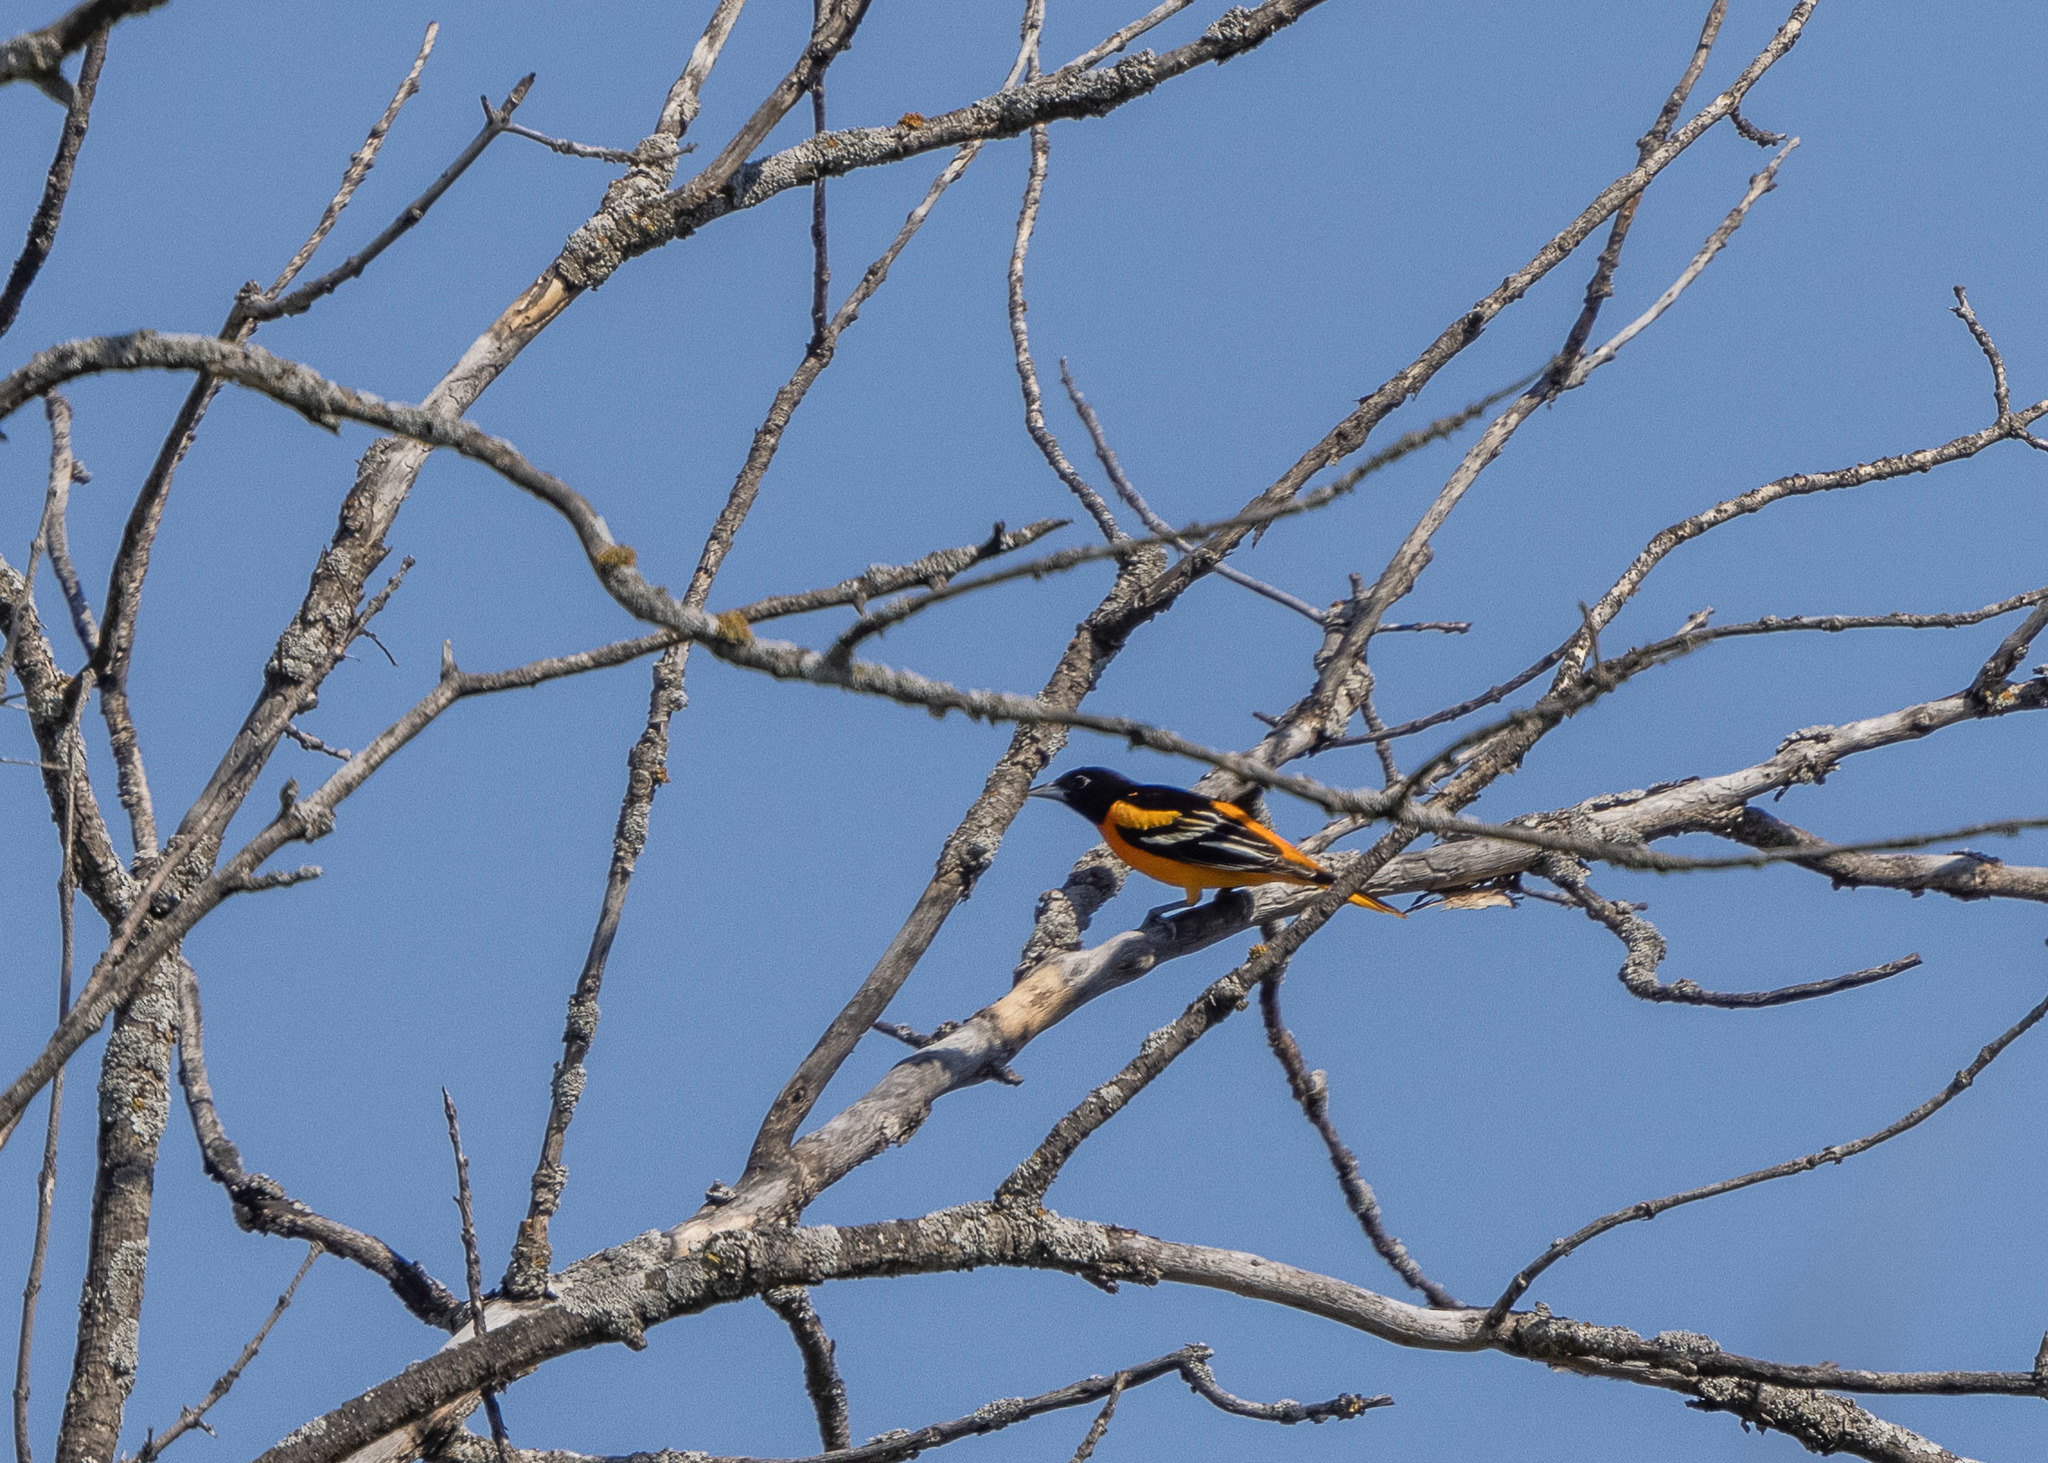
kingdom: Animalia
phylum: Chordata
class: Aves
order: Passeriformes
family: Icteridae
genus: Icterus
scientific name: Icterus galbula
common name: Baltimore oriole
